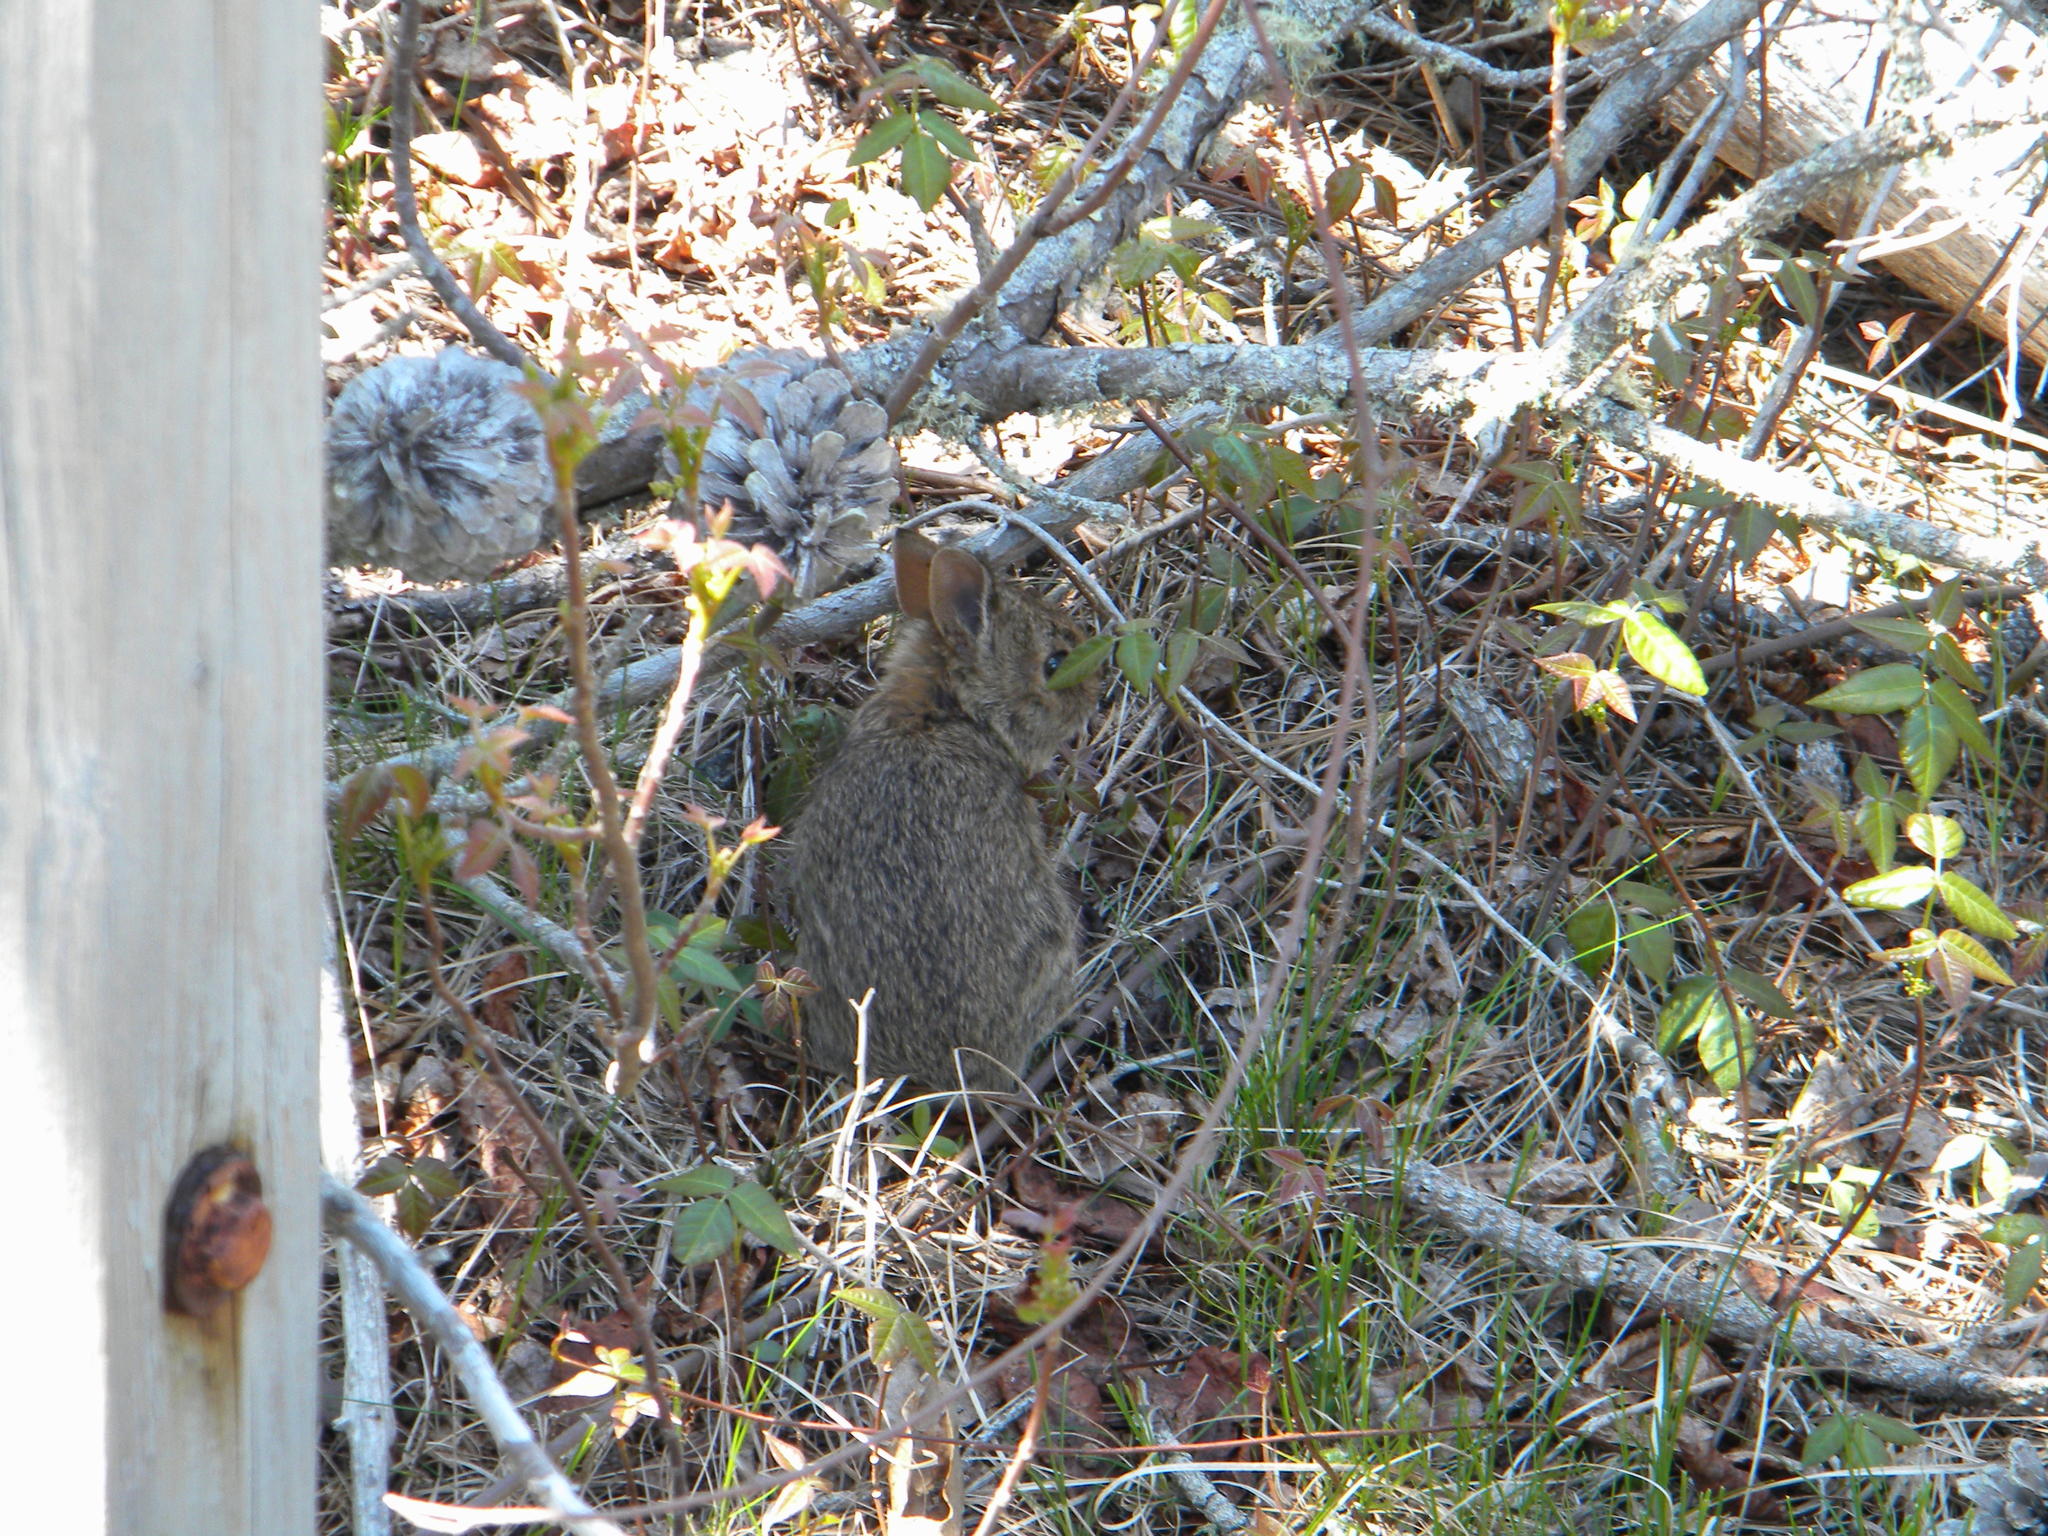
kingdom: Animalia
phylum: Chordata
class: Mammalia
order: Lagomorpha
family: Leporidae
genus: Sylvilagus
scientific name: Sylvilagus floridanus
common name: Eastern cottontail
